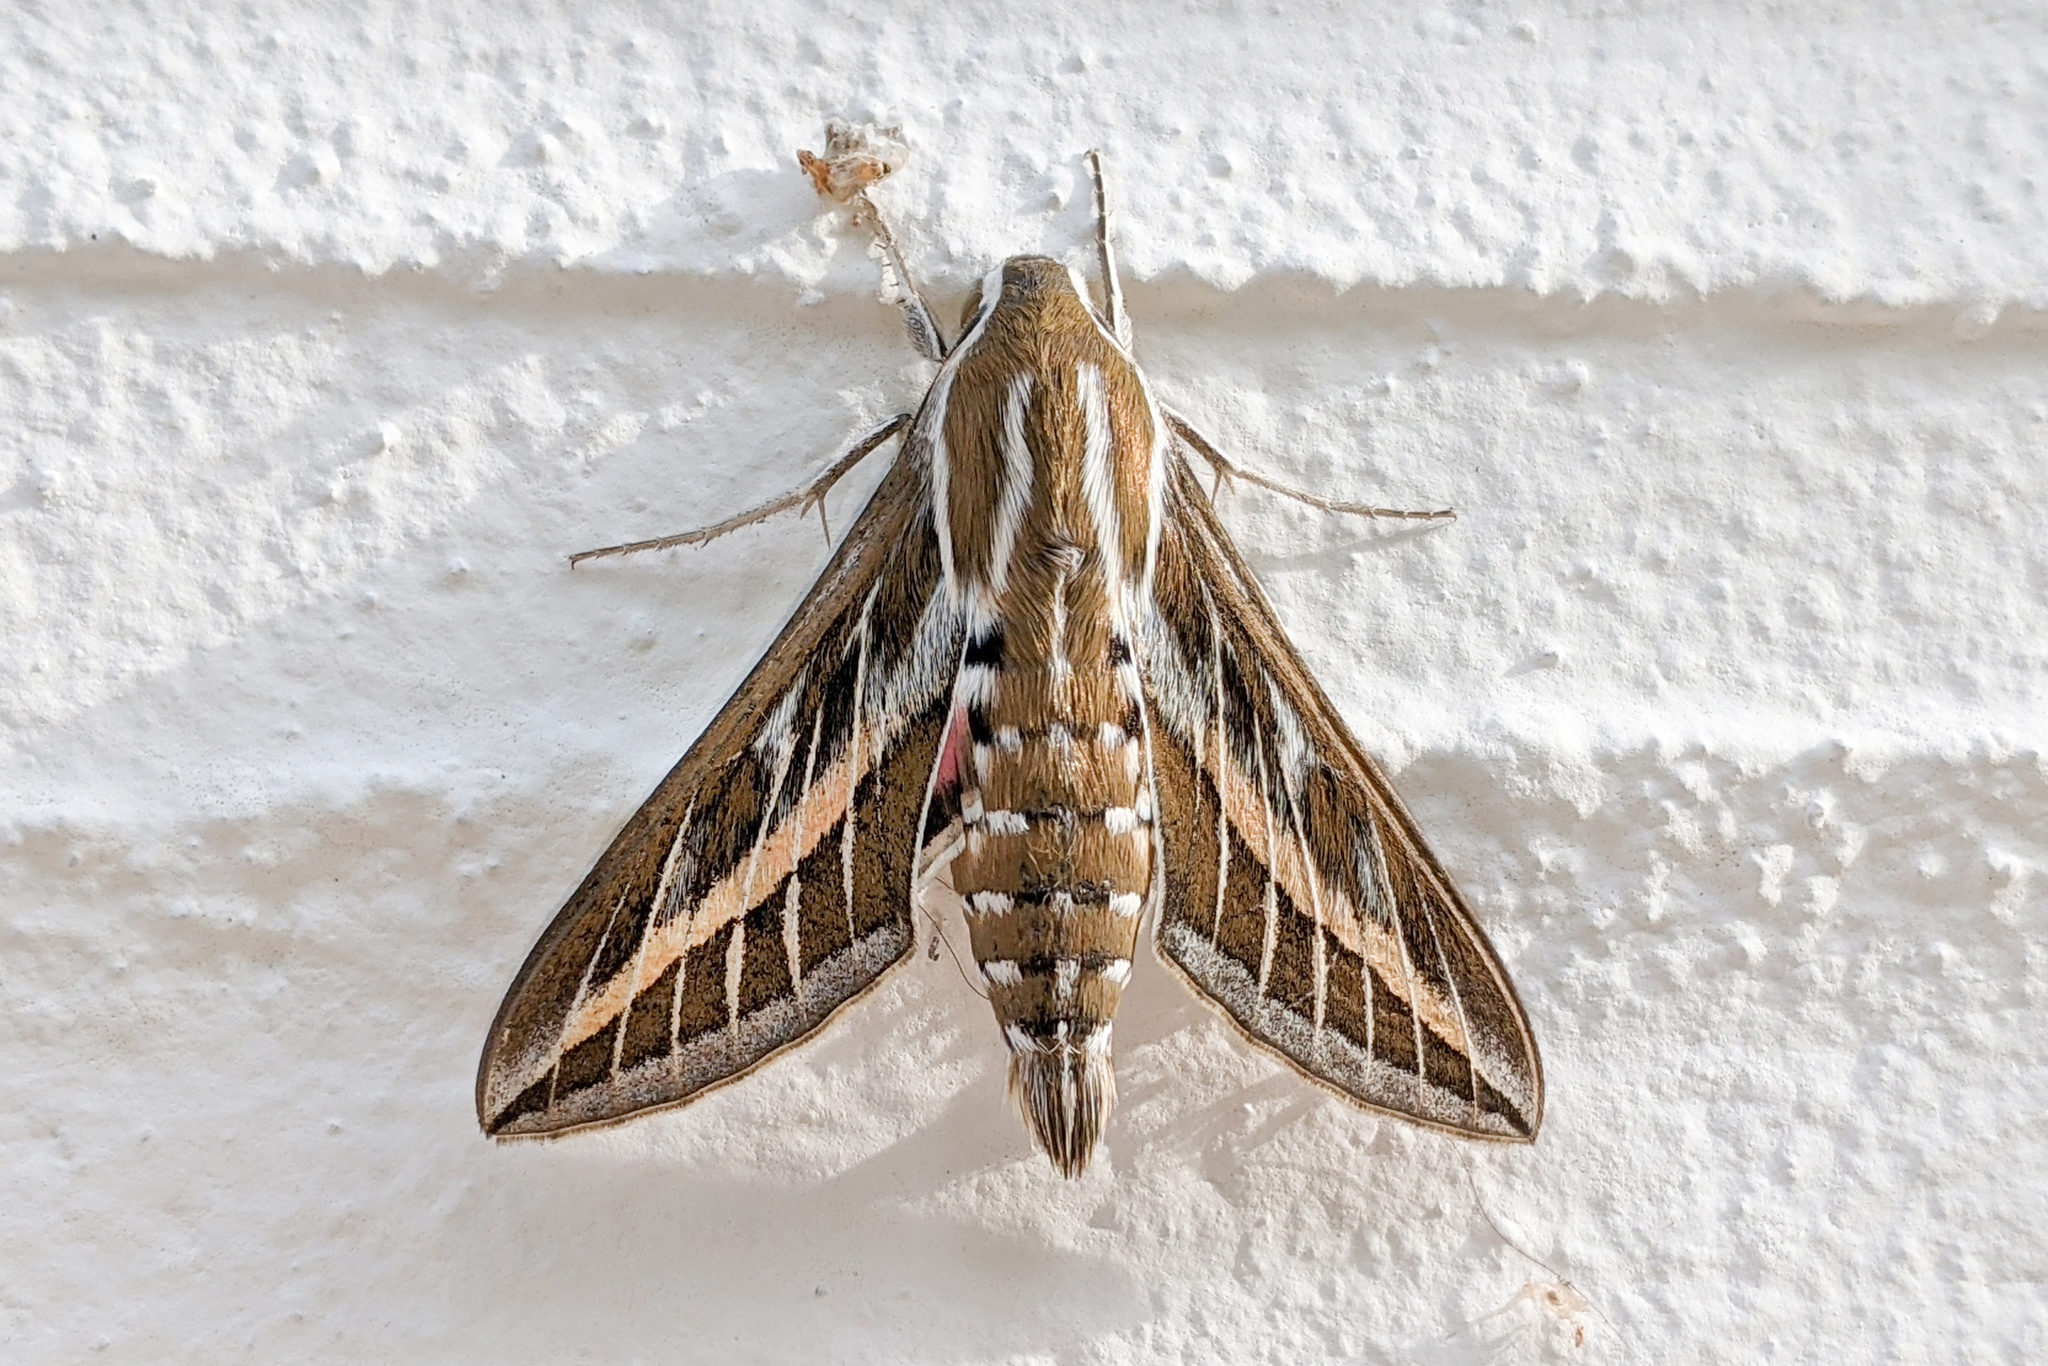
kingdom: Animalia
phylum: Arthropoda
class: Insecta
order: Lepidoptera
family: Sphingidae
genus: Hyles
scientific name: Hyles livornica
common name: Striped hawk-moth
